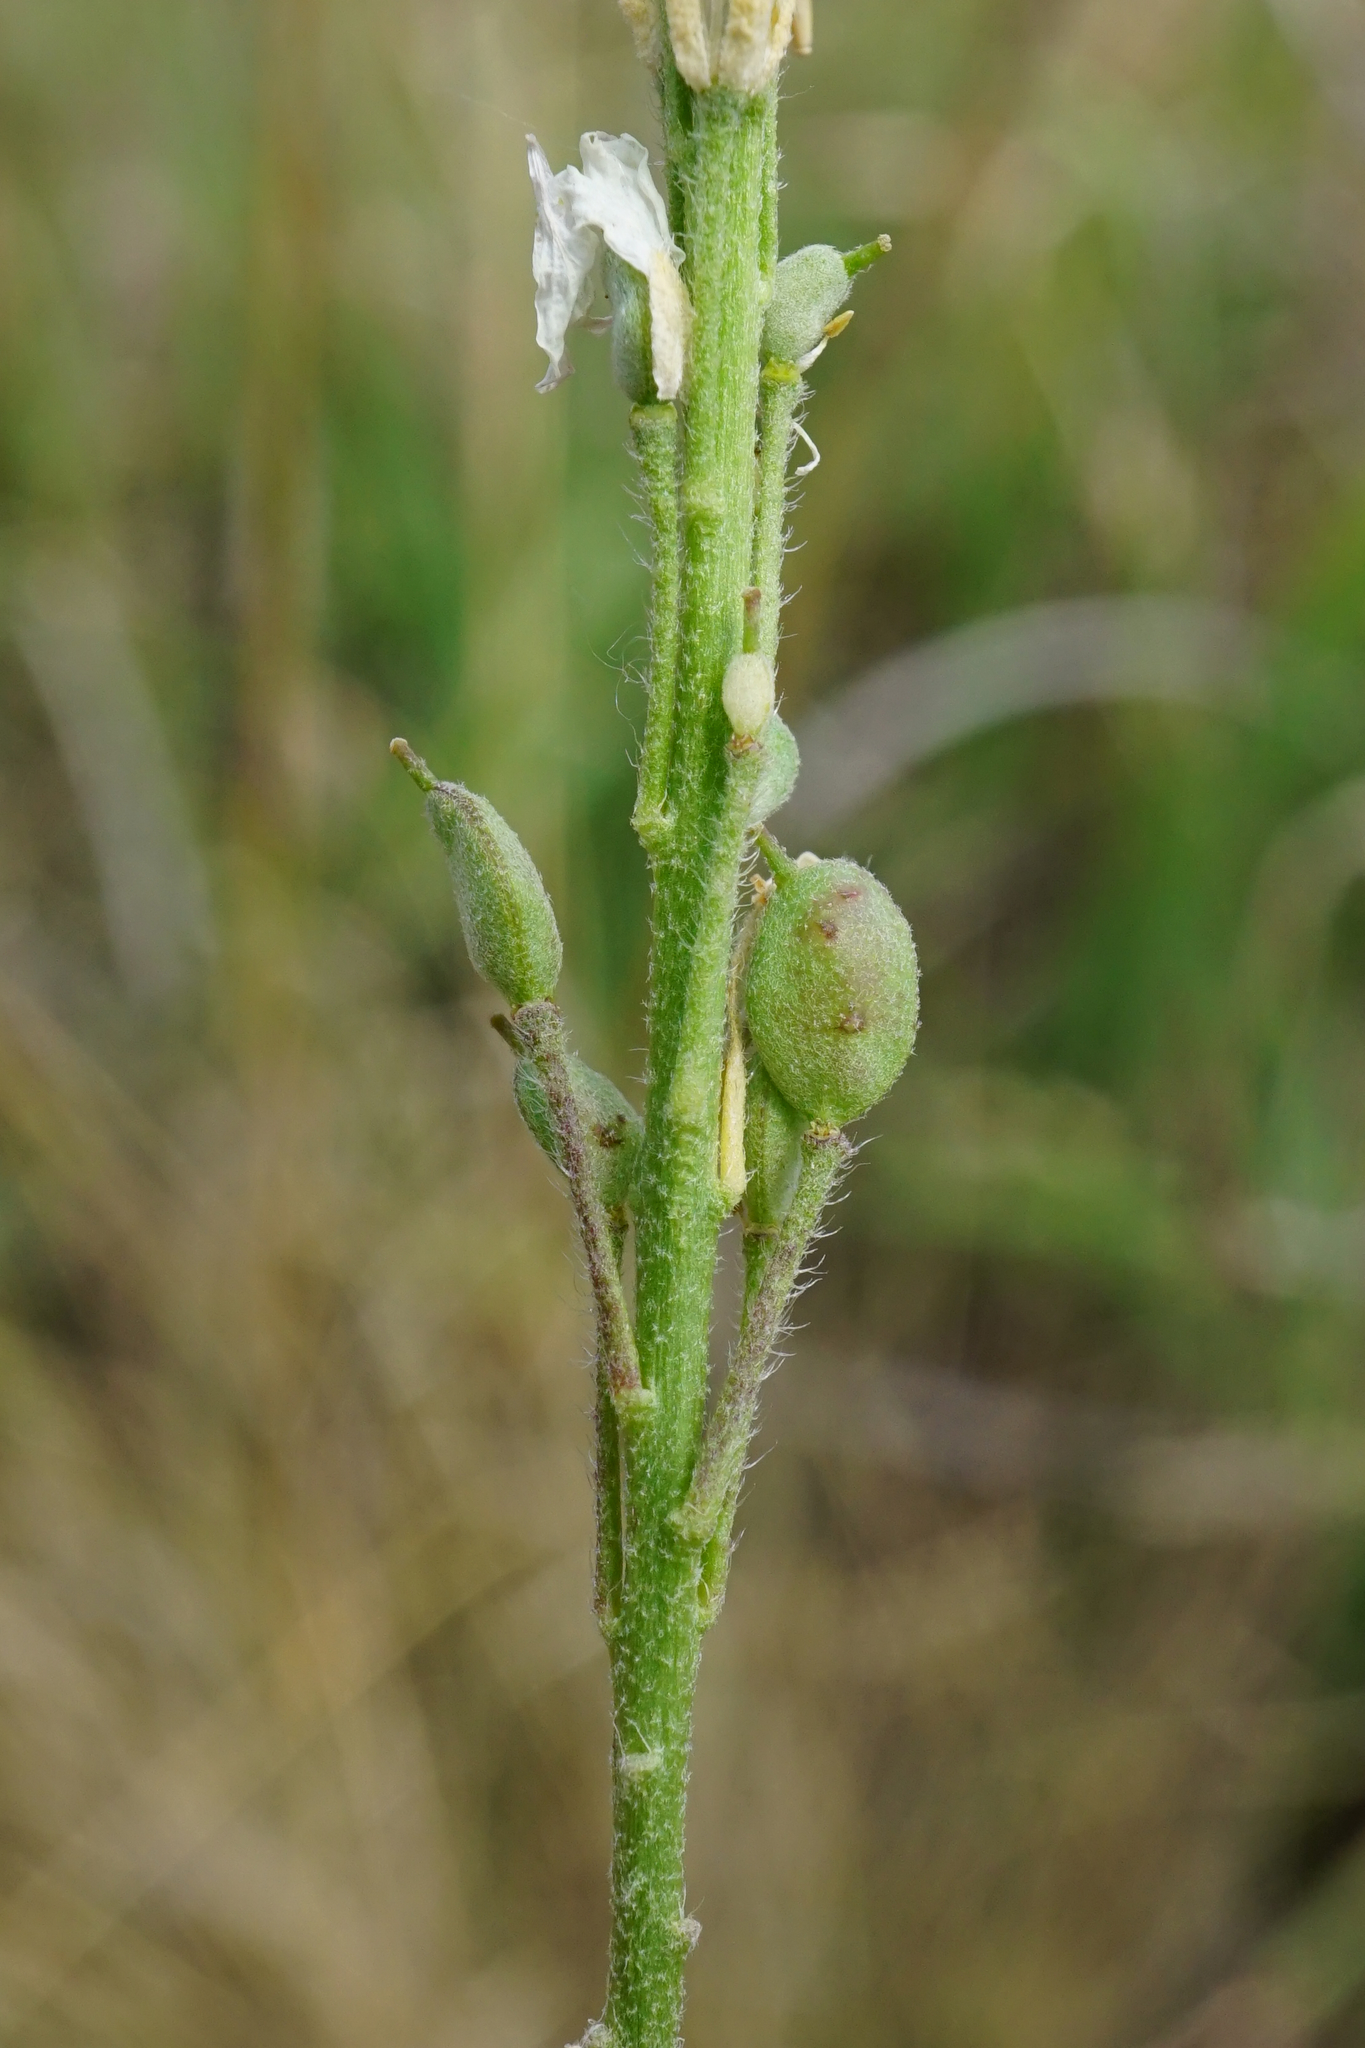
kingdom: Plantae
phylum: Tracheophyta
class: Magnoliopsida
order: Brassicales
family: Brassicaceae
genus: Berteroa
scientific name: Berteroa incana
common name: Hoary alison
